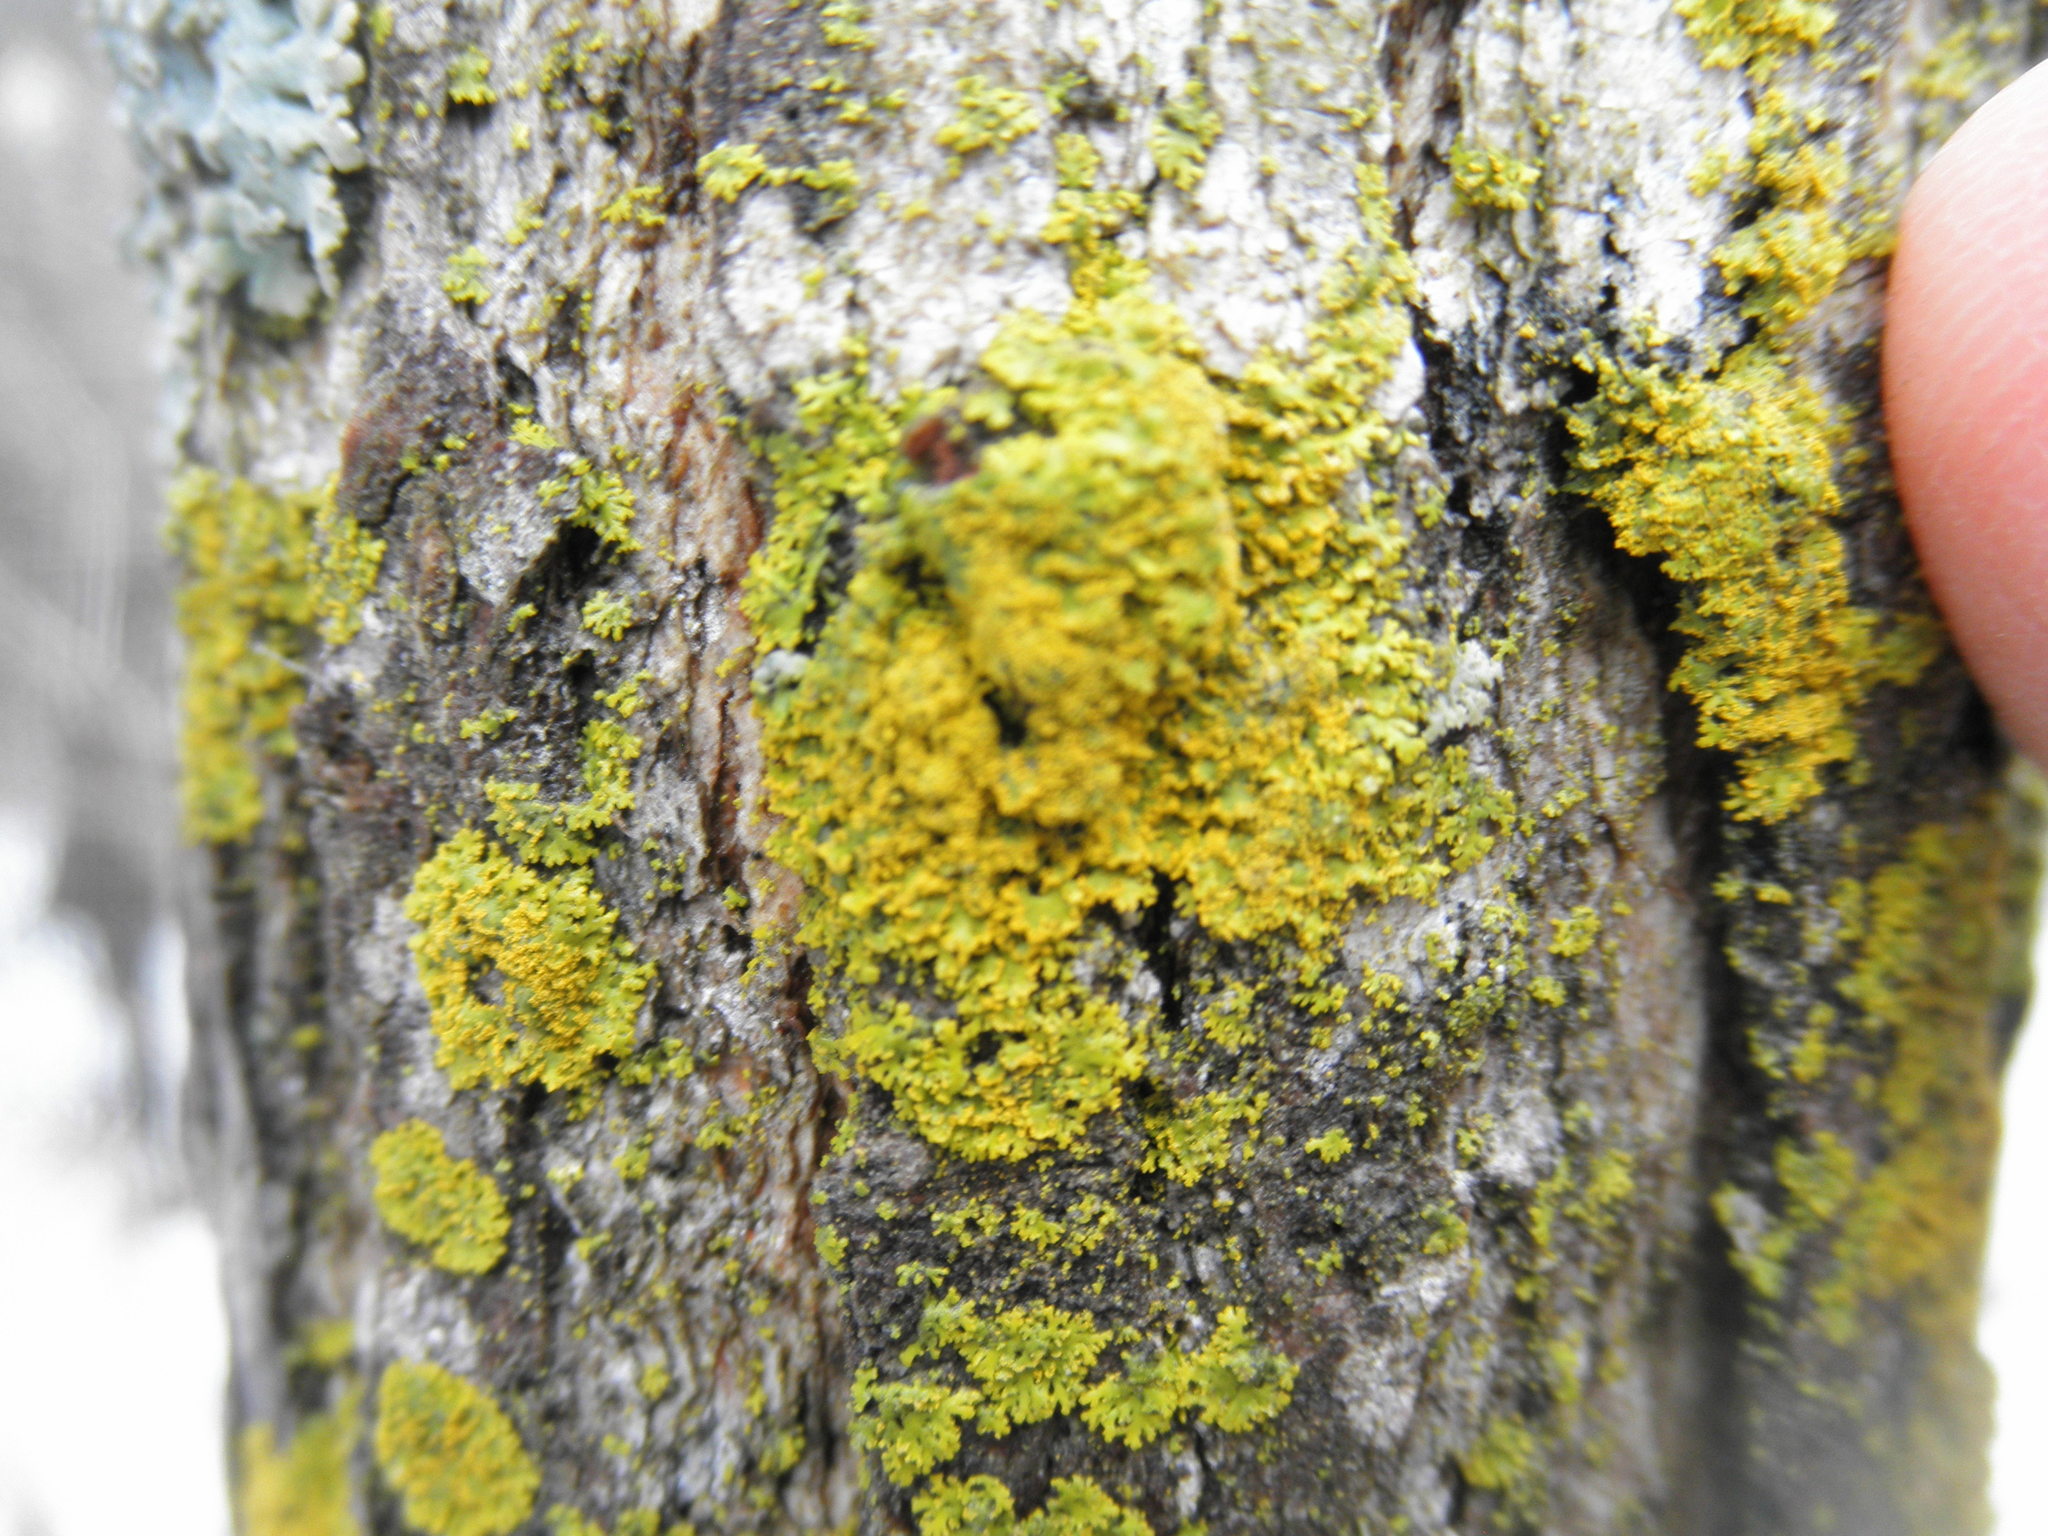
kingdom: Fungi
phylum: Ascomycota
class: Lecanoromycetes
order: Teloschistales
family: Teloschistaceae
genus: Xanthoria
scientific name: Xanthoria ulophyllodes
